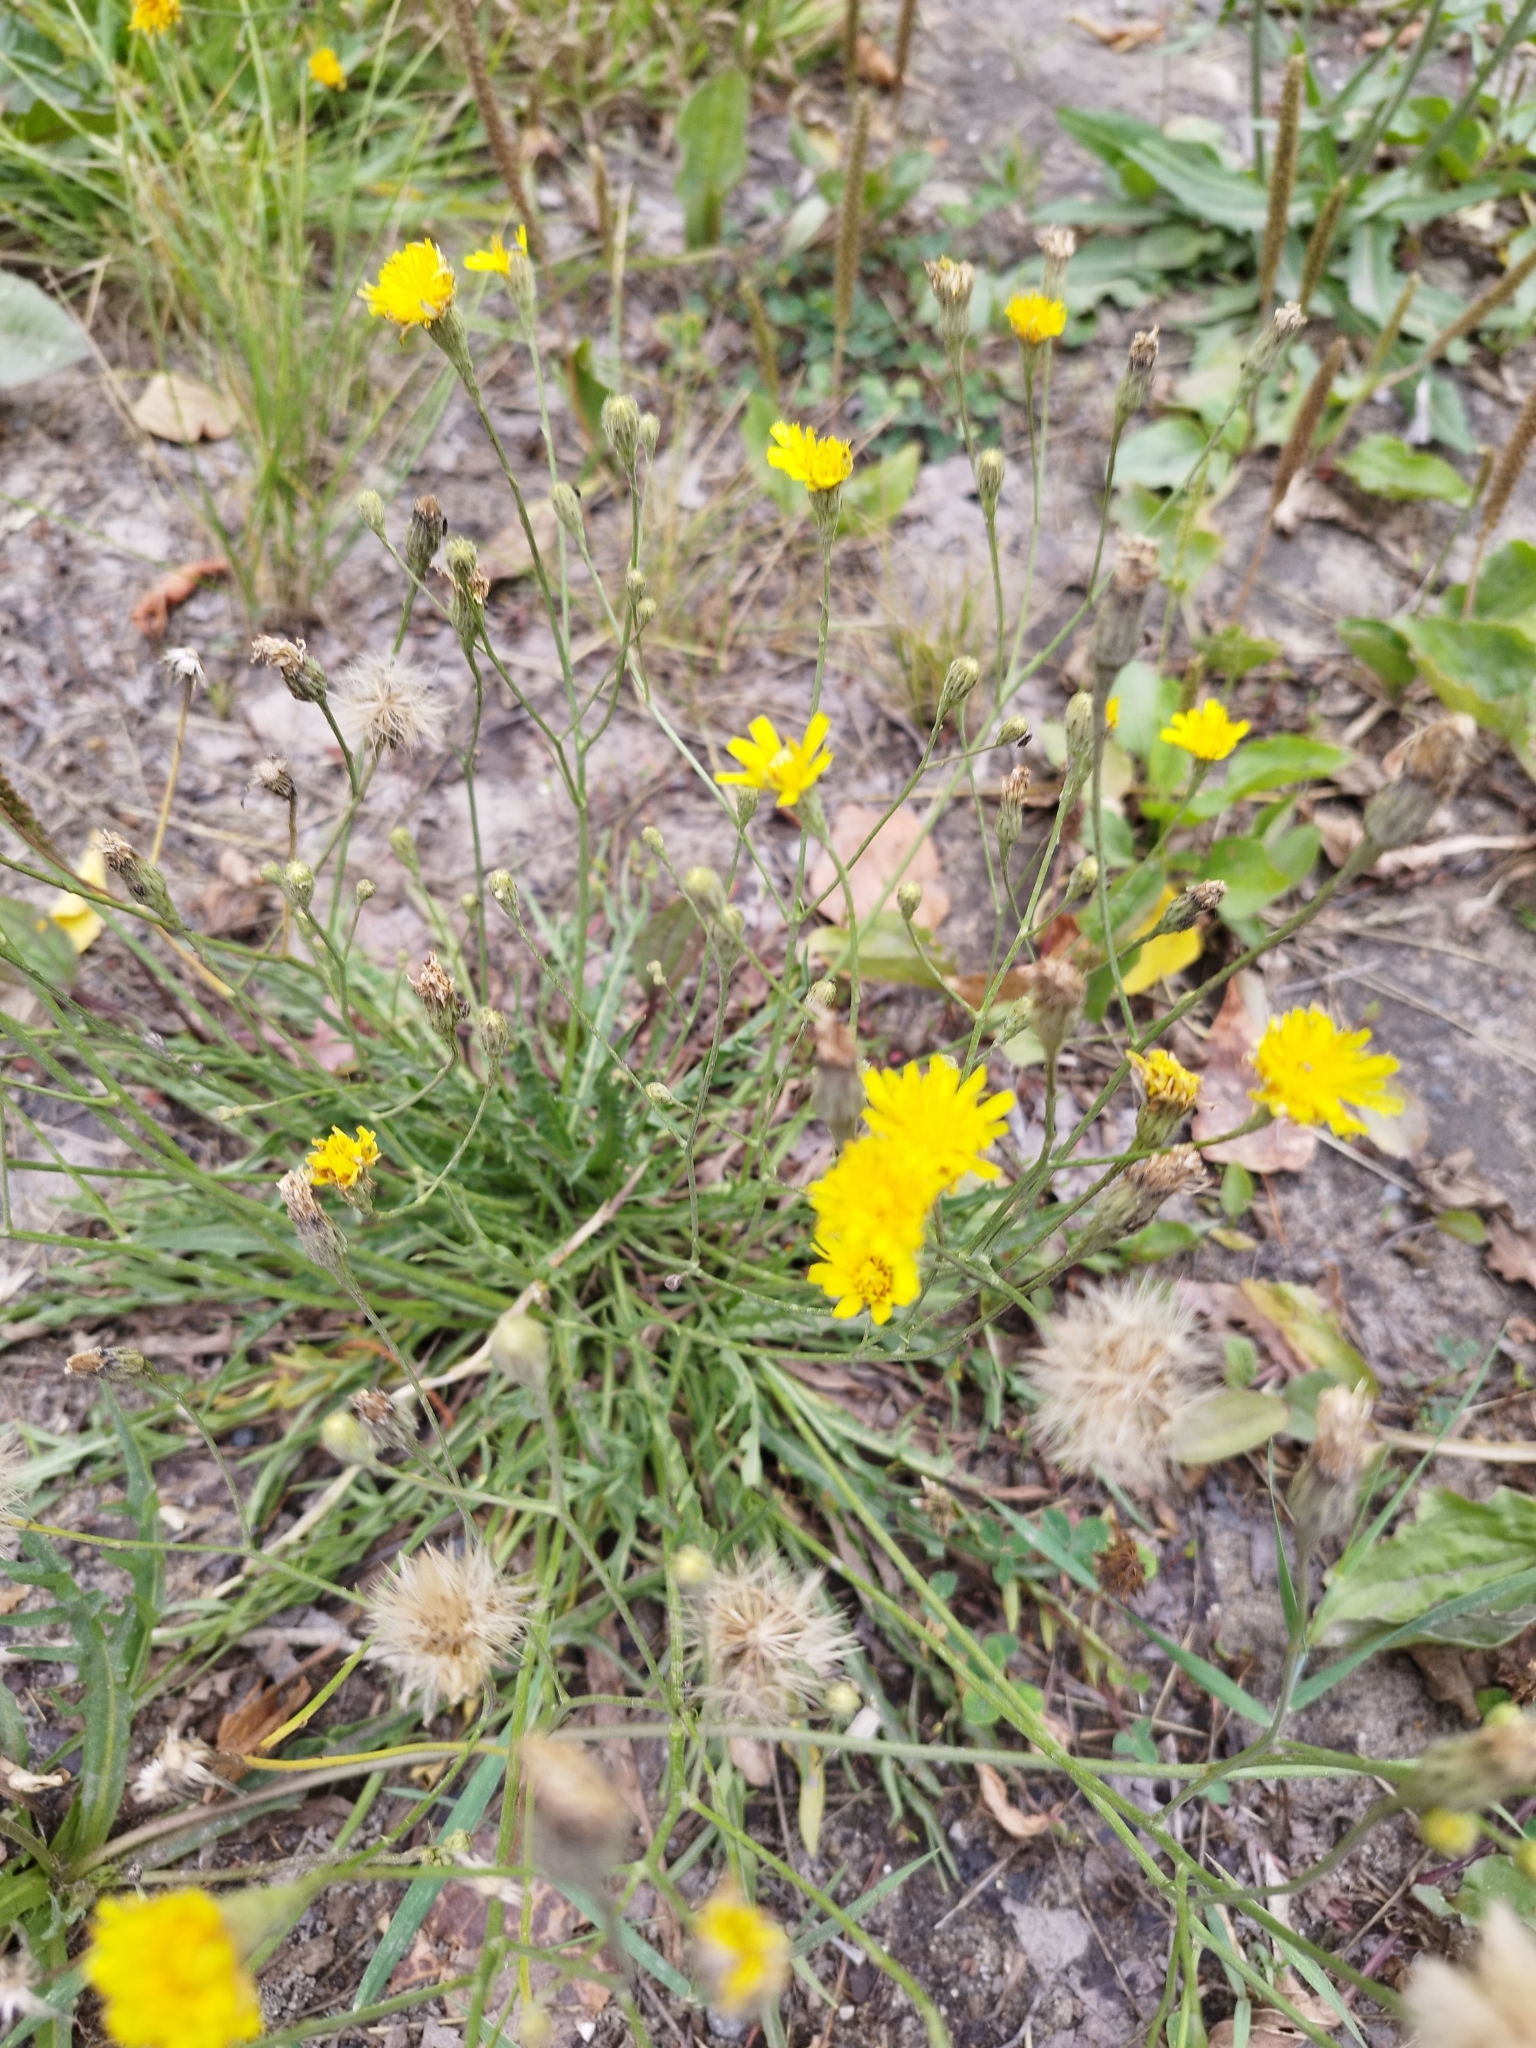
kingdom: Plantae
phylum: Tracheophyta
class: Magnoliopsida
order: Asterales
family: Asteraceae
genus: Scorzoneroides
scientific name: Scorzoneroides autumnalis
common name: Autumn hawkbit
